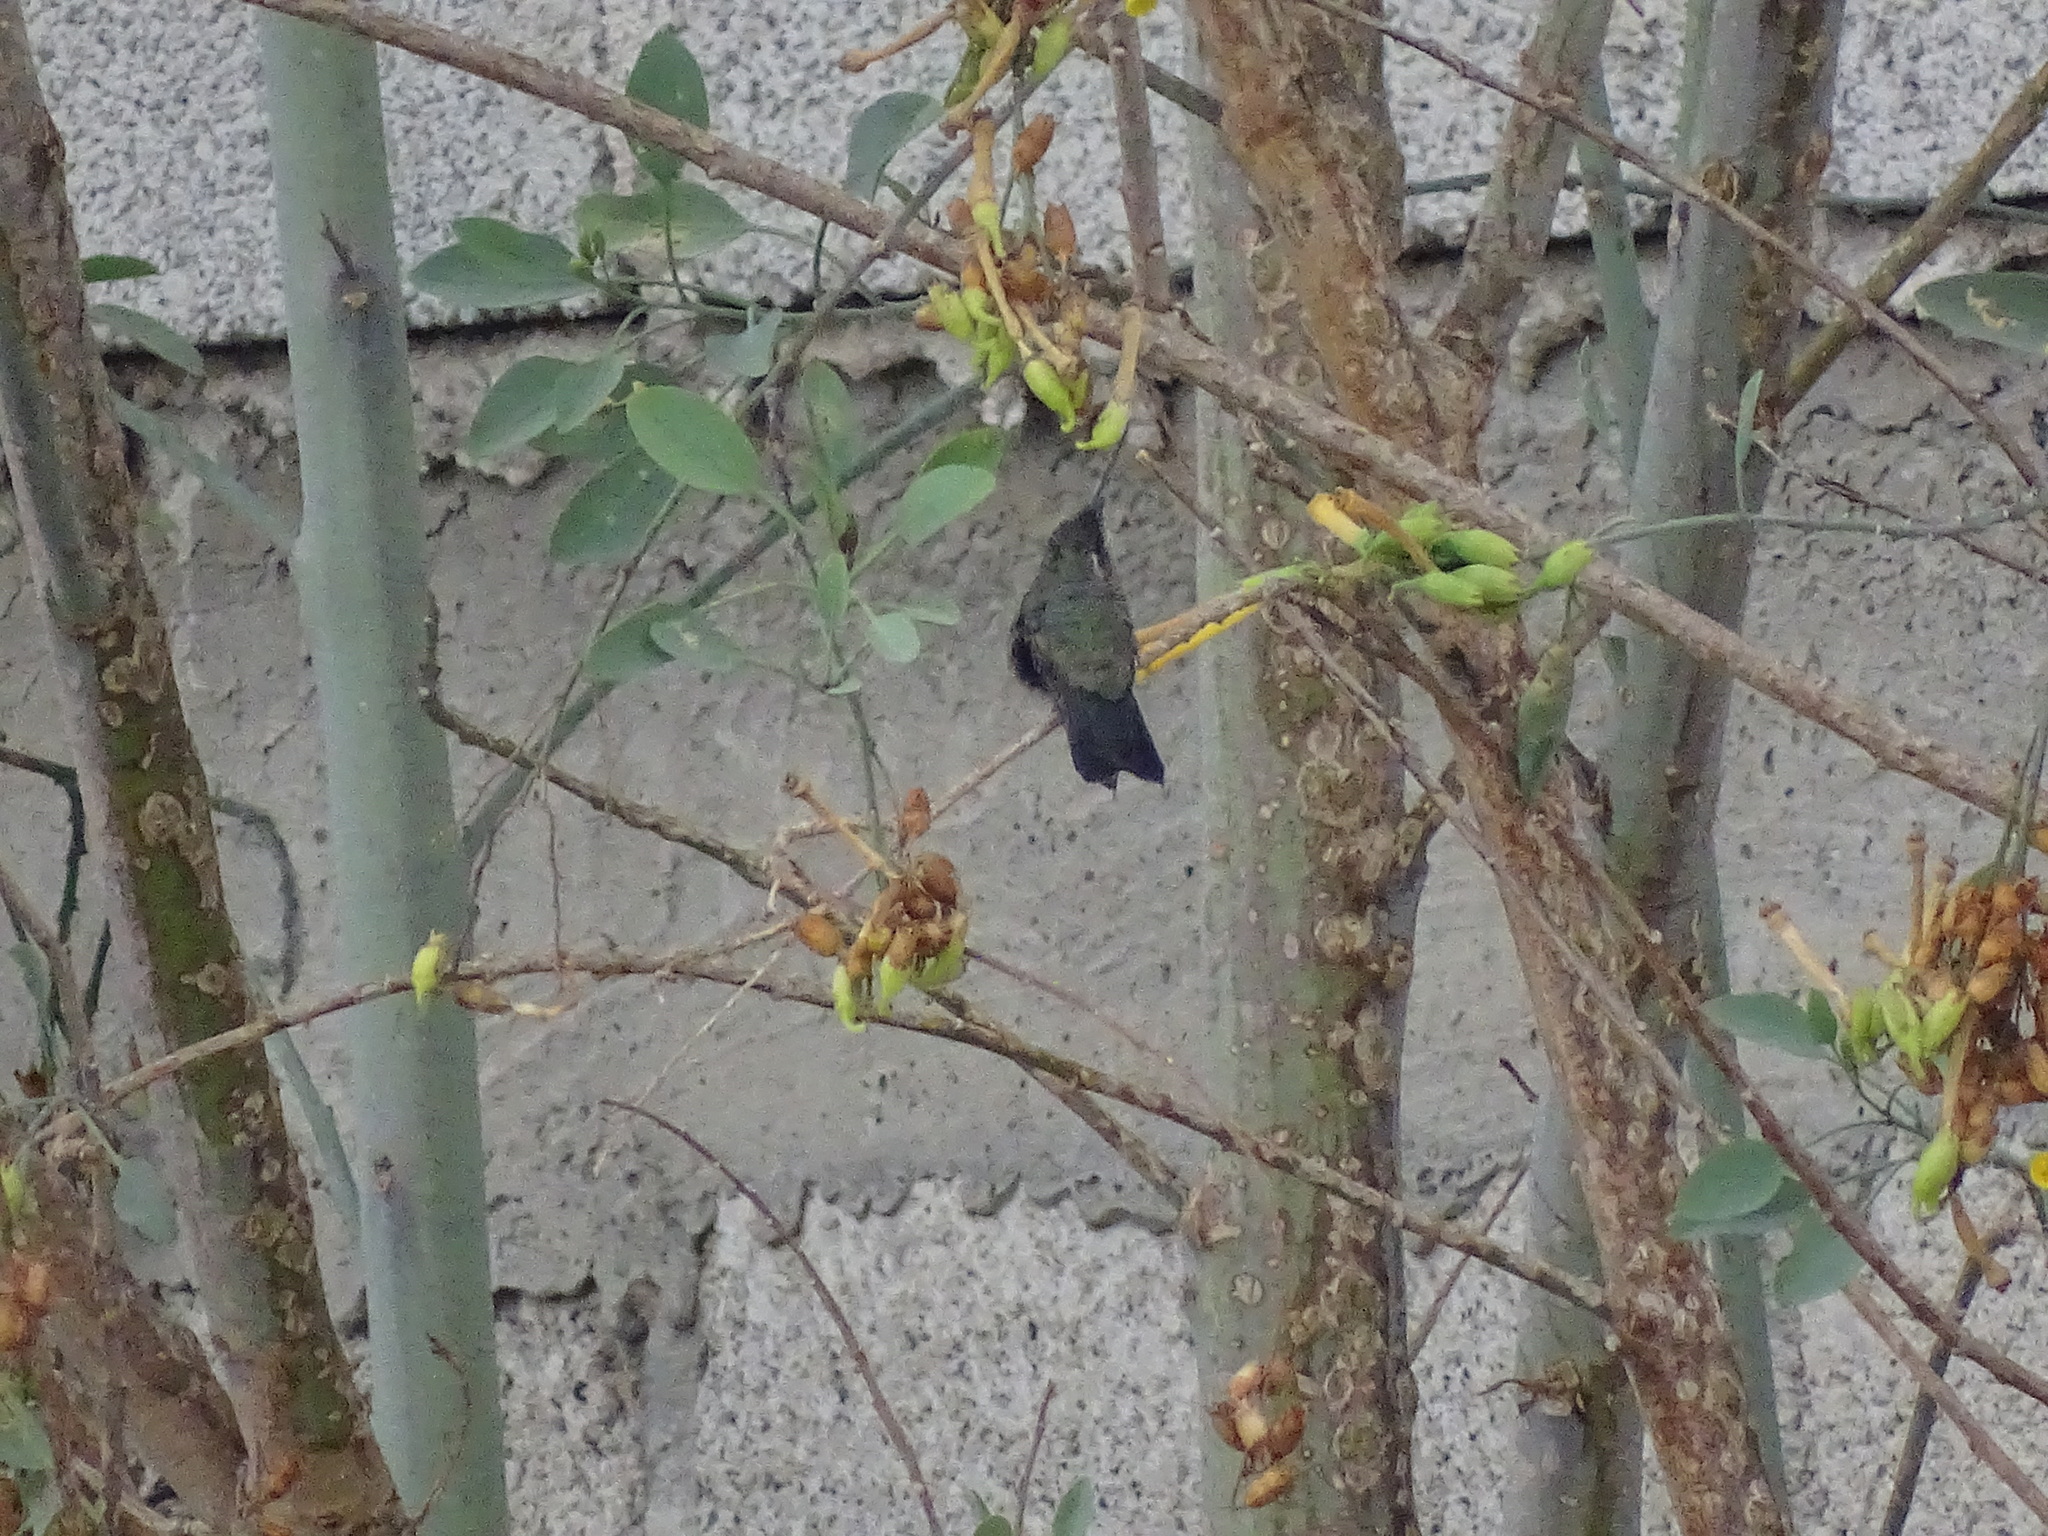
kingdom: Animalia
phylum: Chordata
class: Aves
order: Apodiformes
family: Trochilidae
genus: Basilinna
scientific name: Basilinna leucotis
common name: White-eared hummingbird
